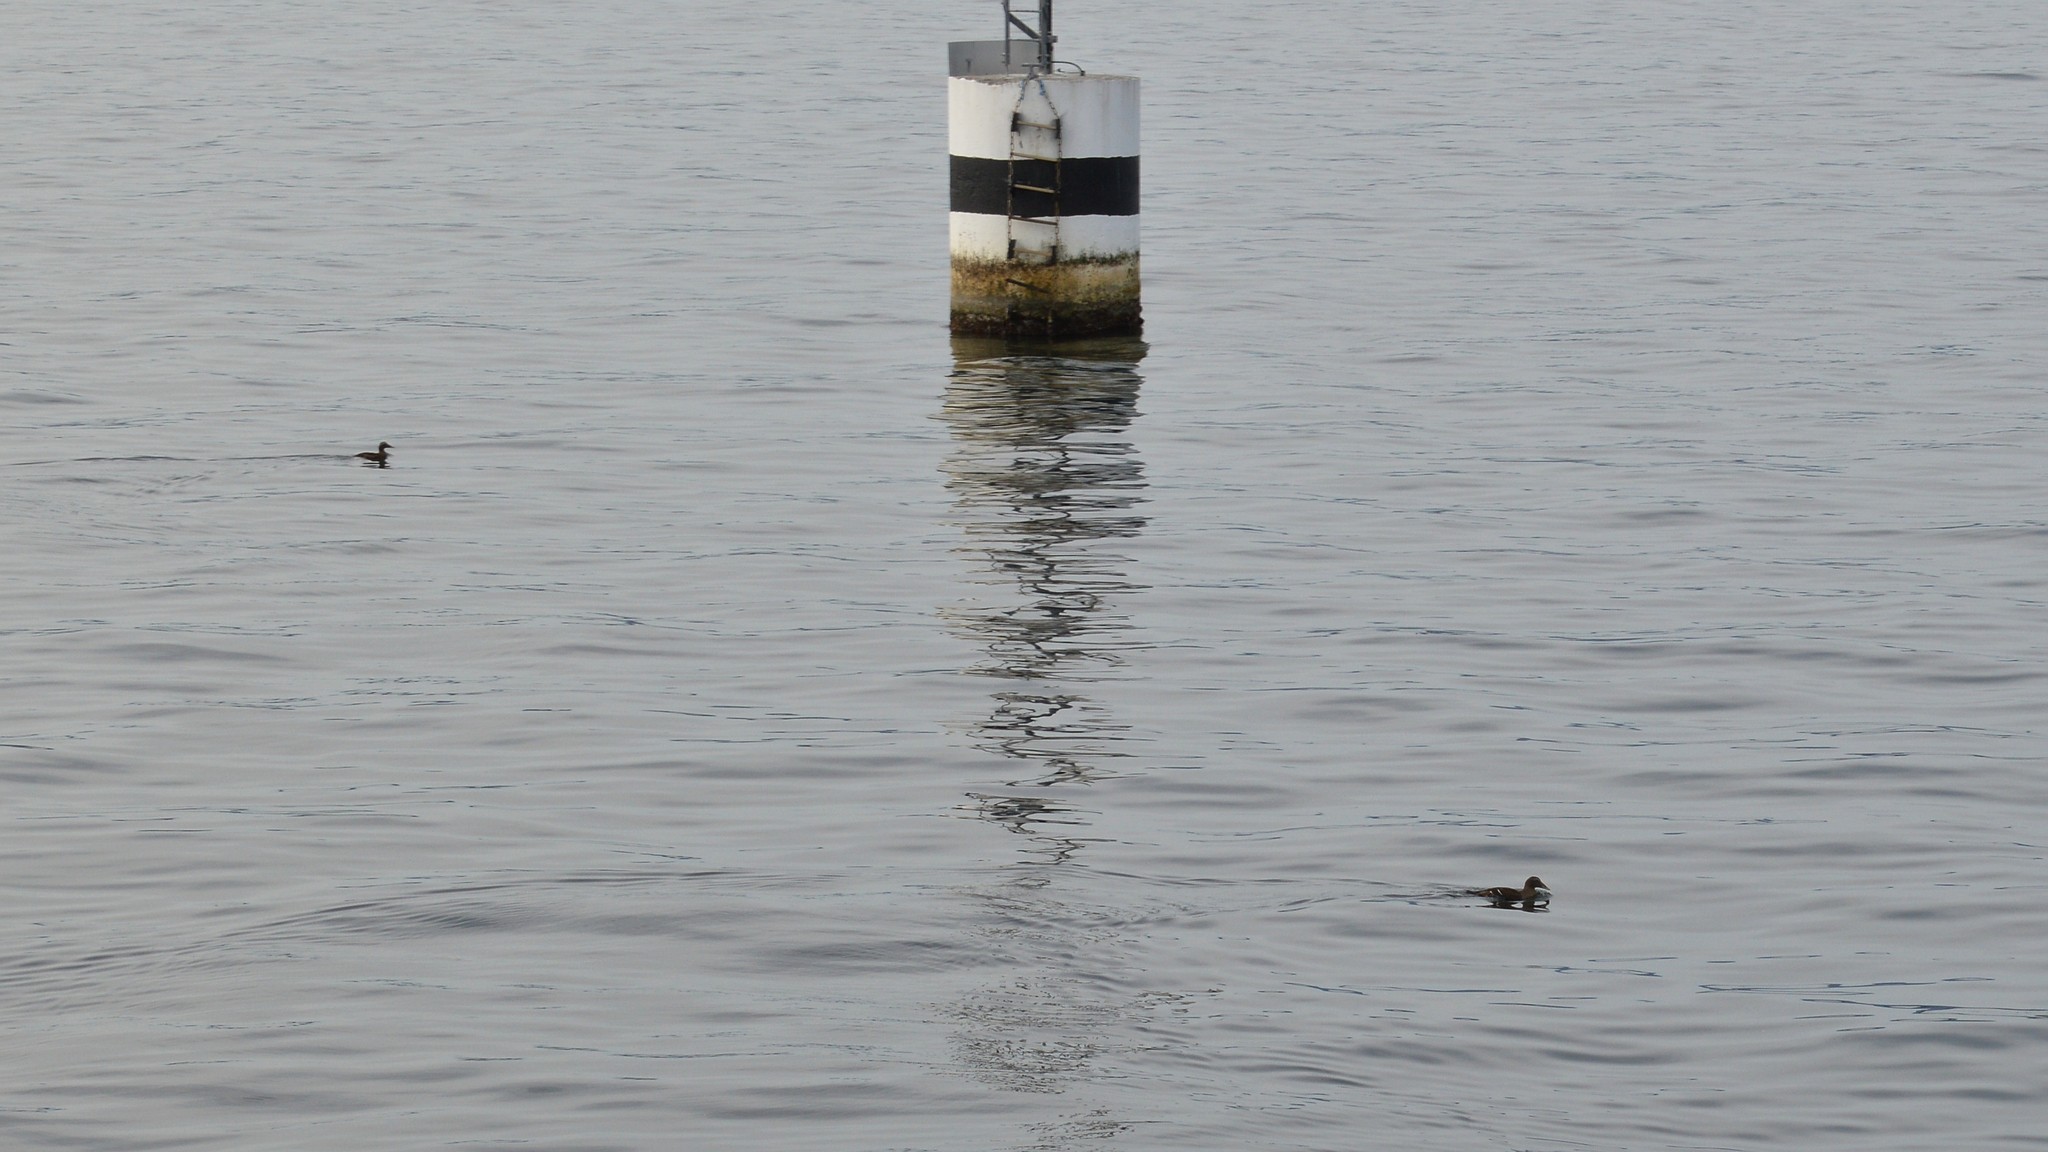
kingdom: Animalia
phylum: Chordata
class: Aves
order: Anseriformes
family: Anatidae
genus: Somateria
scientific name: Somateria mollissima
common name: Common eider
